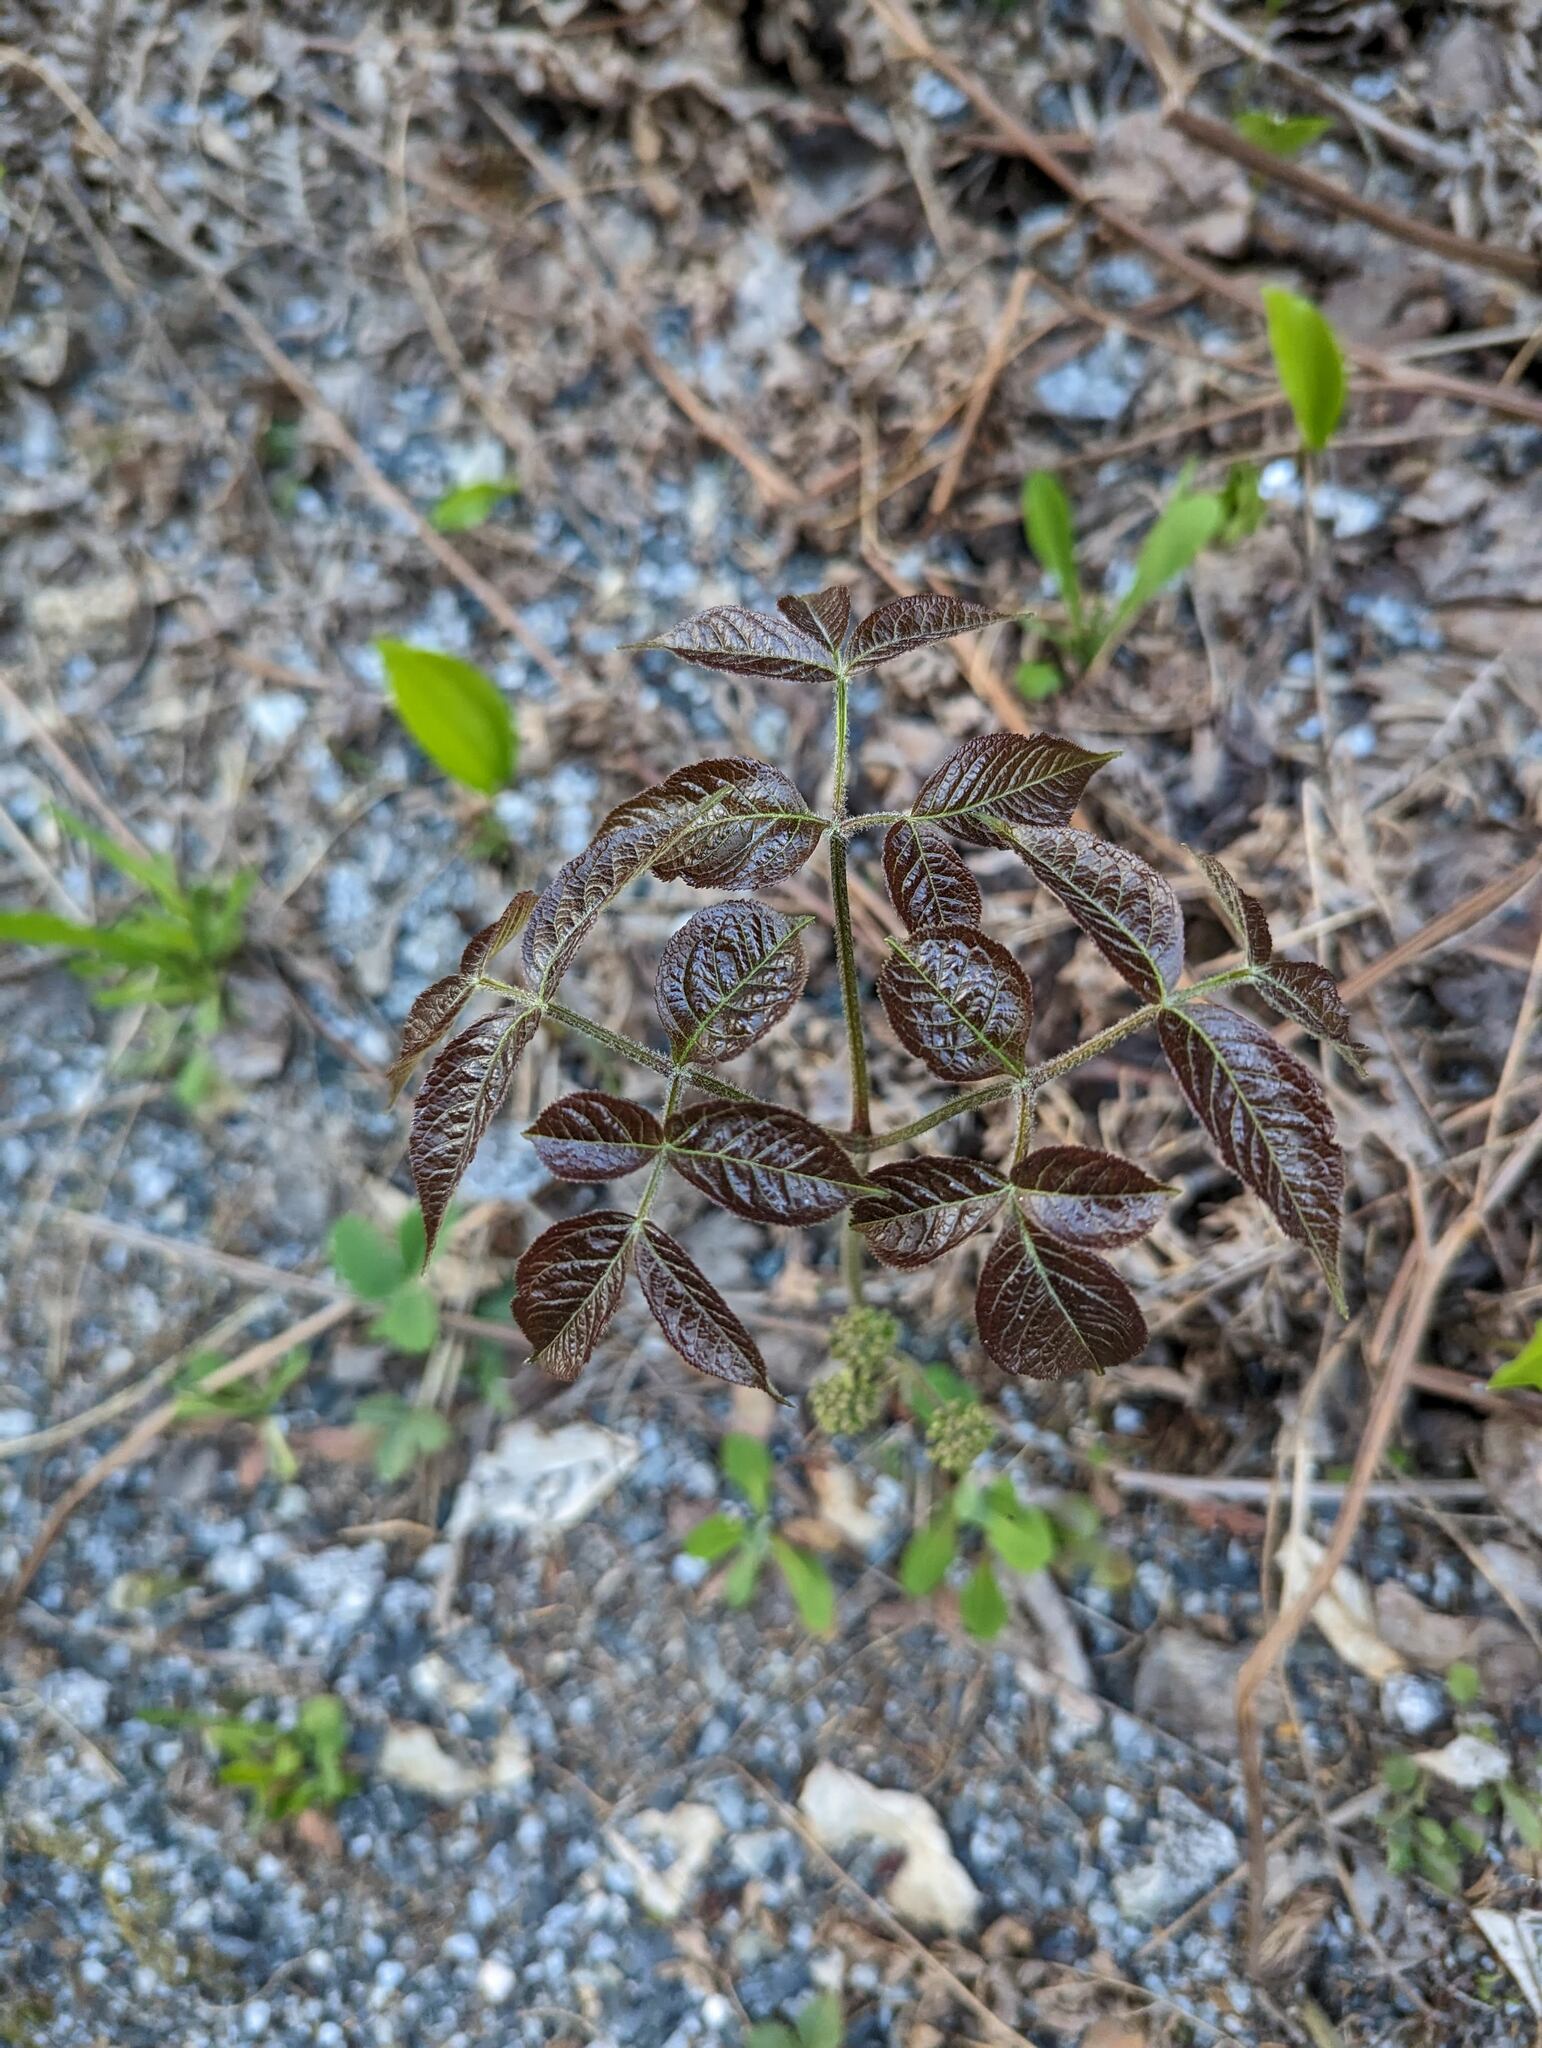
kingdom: Plantae
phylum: Tracheophyta
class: Magnoliopsida
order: Apiales
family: Araliaceae
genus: Aralia
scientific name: Aralia nudicaulis
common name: Wild sarsaparilla
